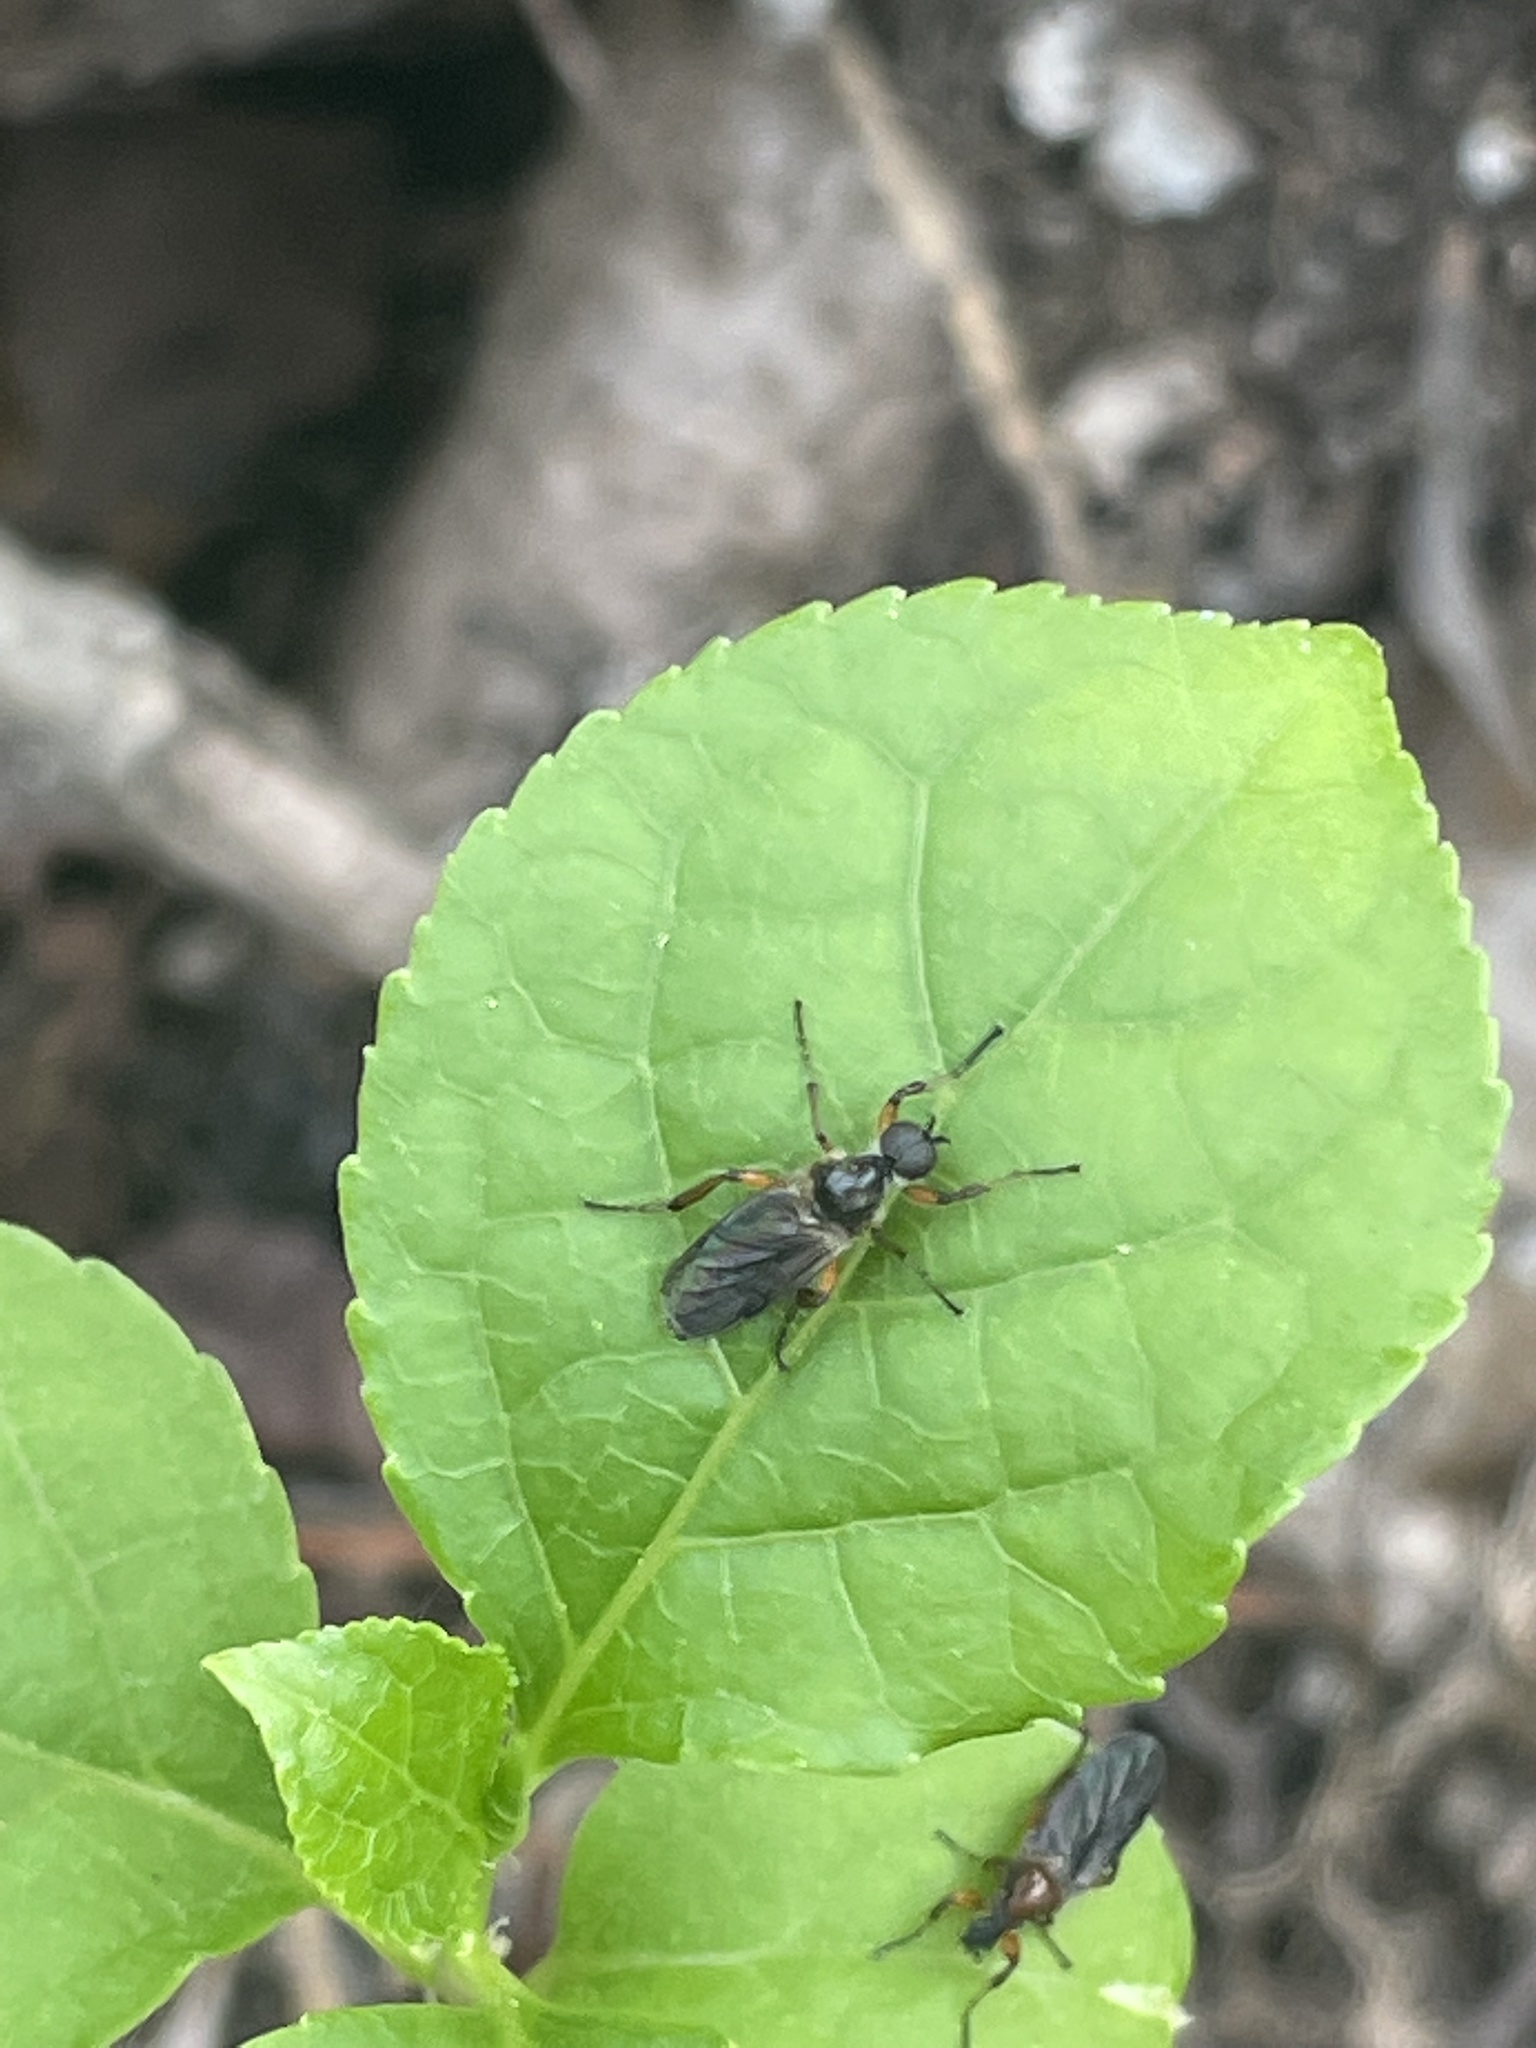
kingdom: Animalia
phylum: Arthropoda
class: Insecta
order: Diptera
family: Bibionidae
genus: Bibio
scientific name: Bibio articulatus
